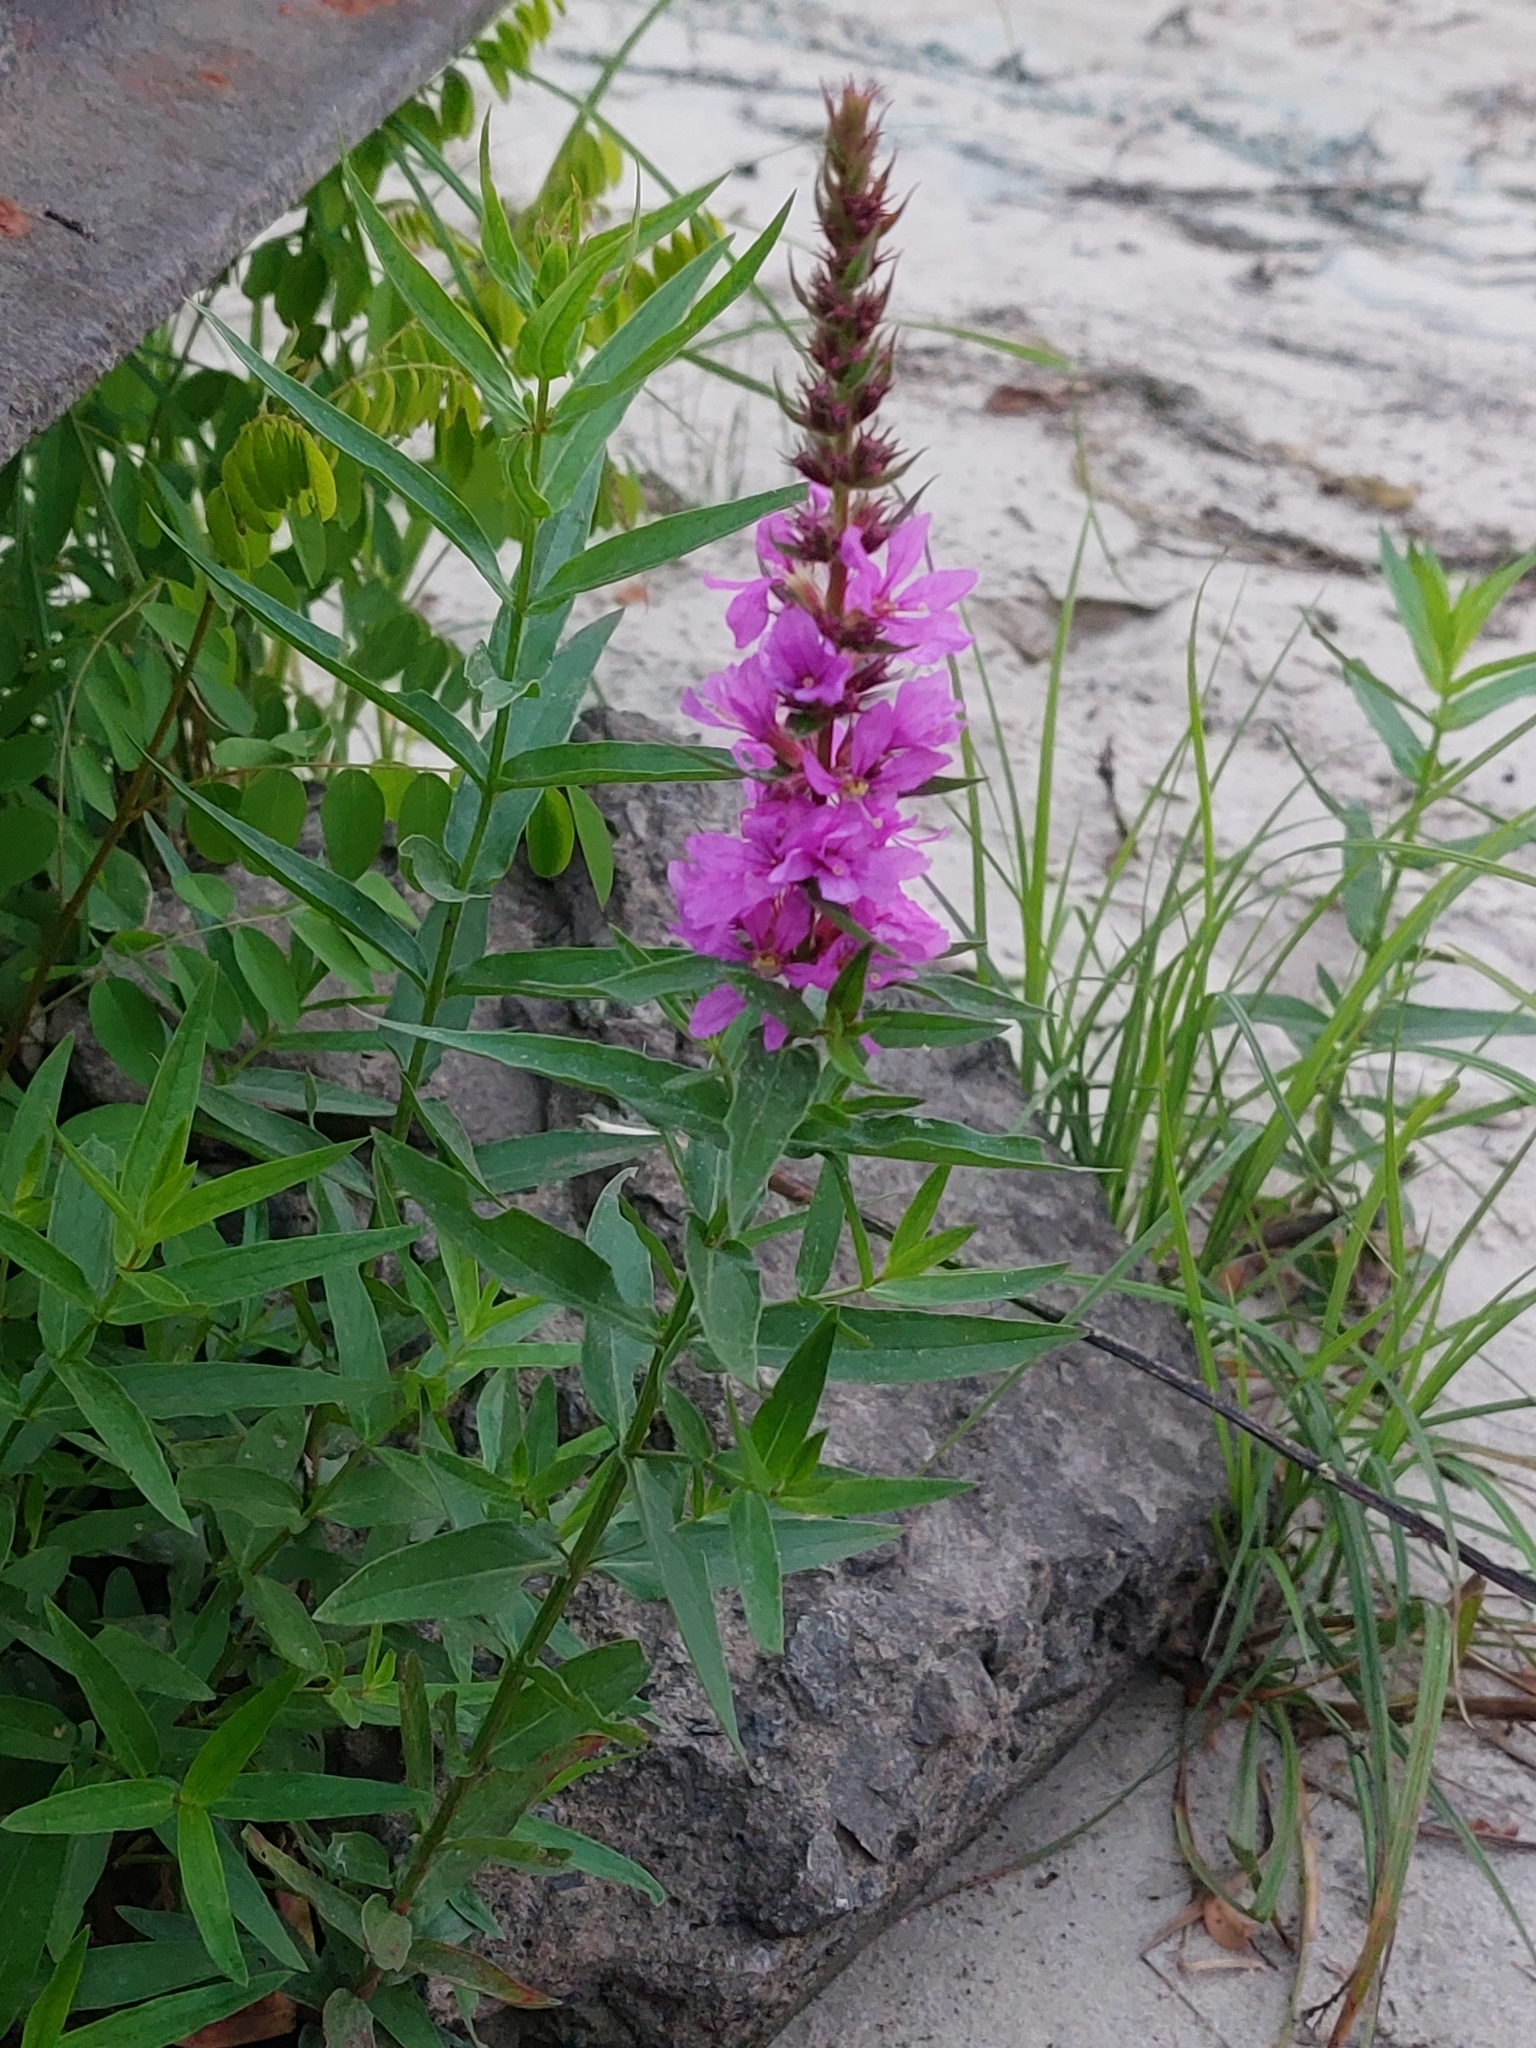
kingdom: Plantae
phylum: Tracheophyta
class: Magnoliopsida
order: Myrtales
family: Lythraceae
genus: Lythrum
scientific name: Lythrum salicaria
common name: Purple loosestrife
